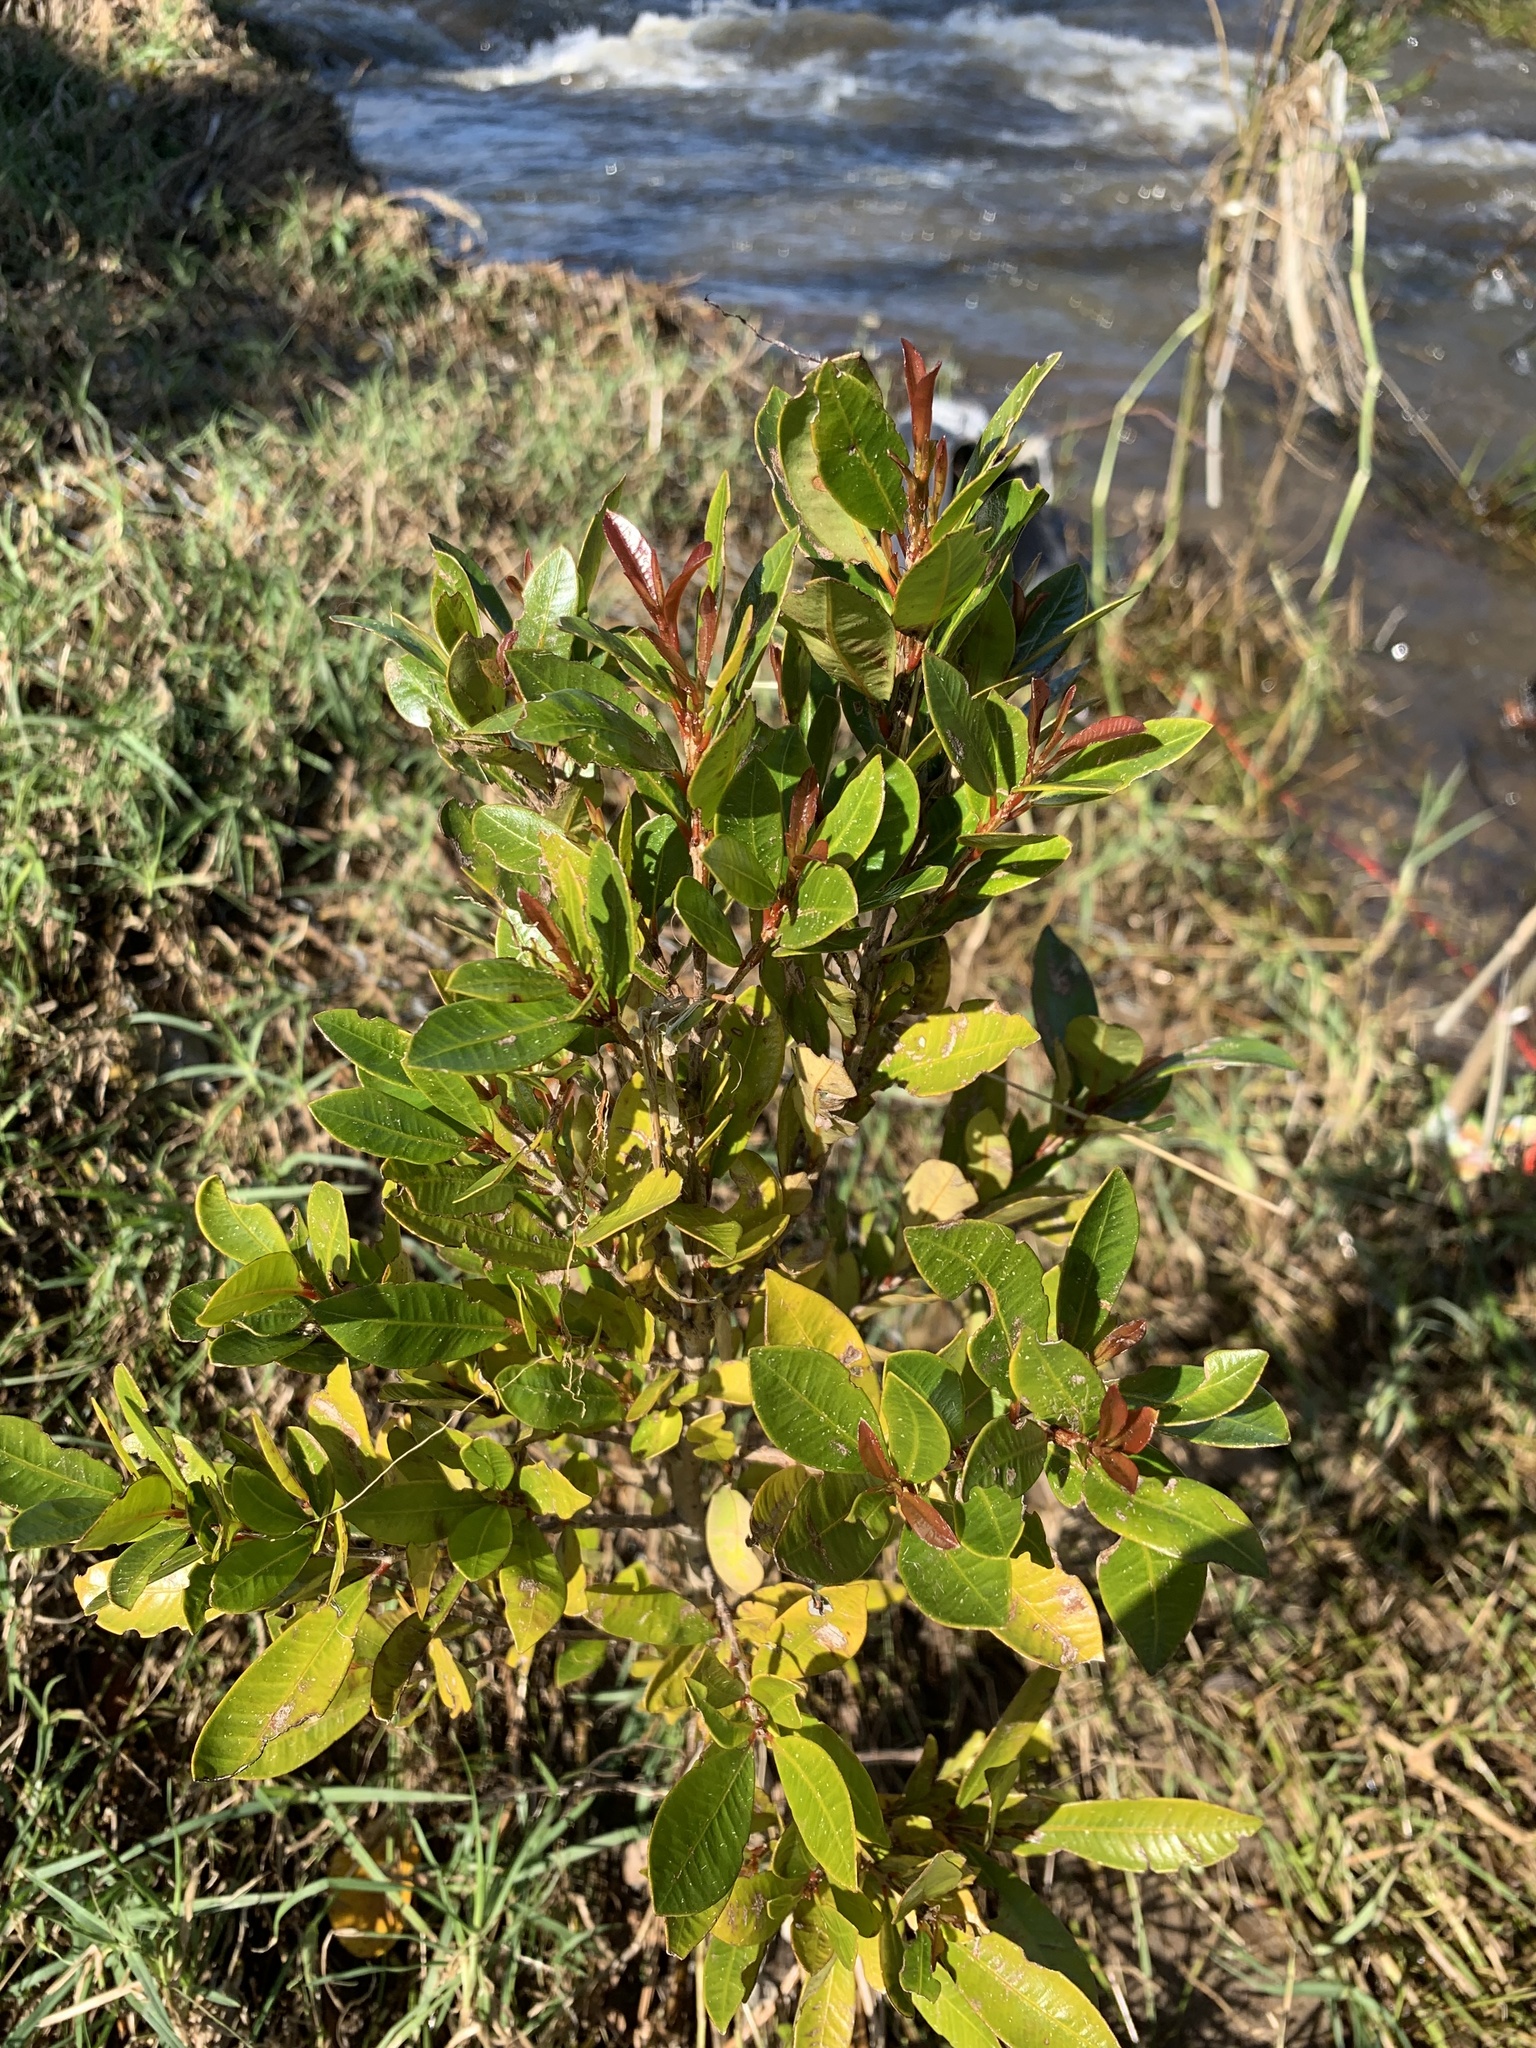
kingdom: Plantae
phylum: Tracheophyta
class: Magnoliopsida
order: Myrtales
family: Myrtaceae
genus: Syzygium
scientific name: Syzygium australe
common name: Australian brush-cherry
